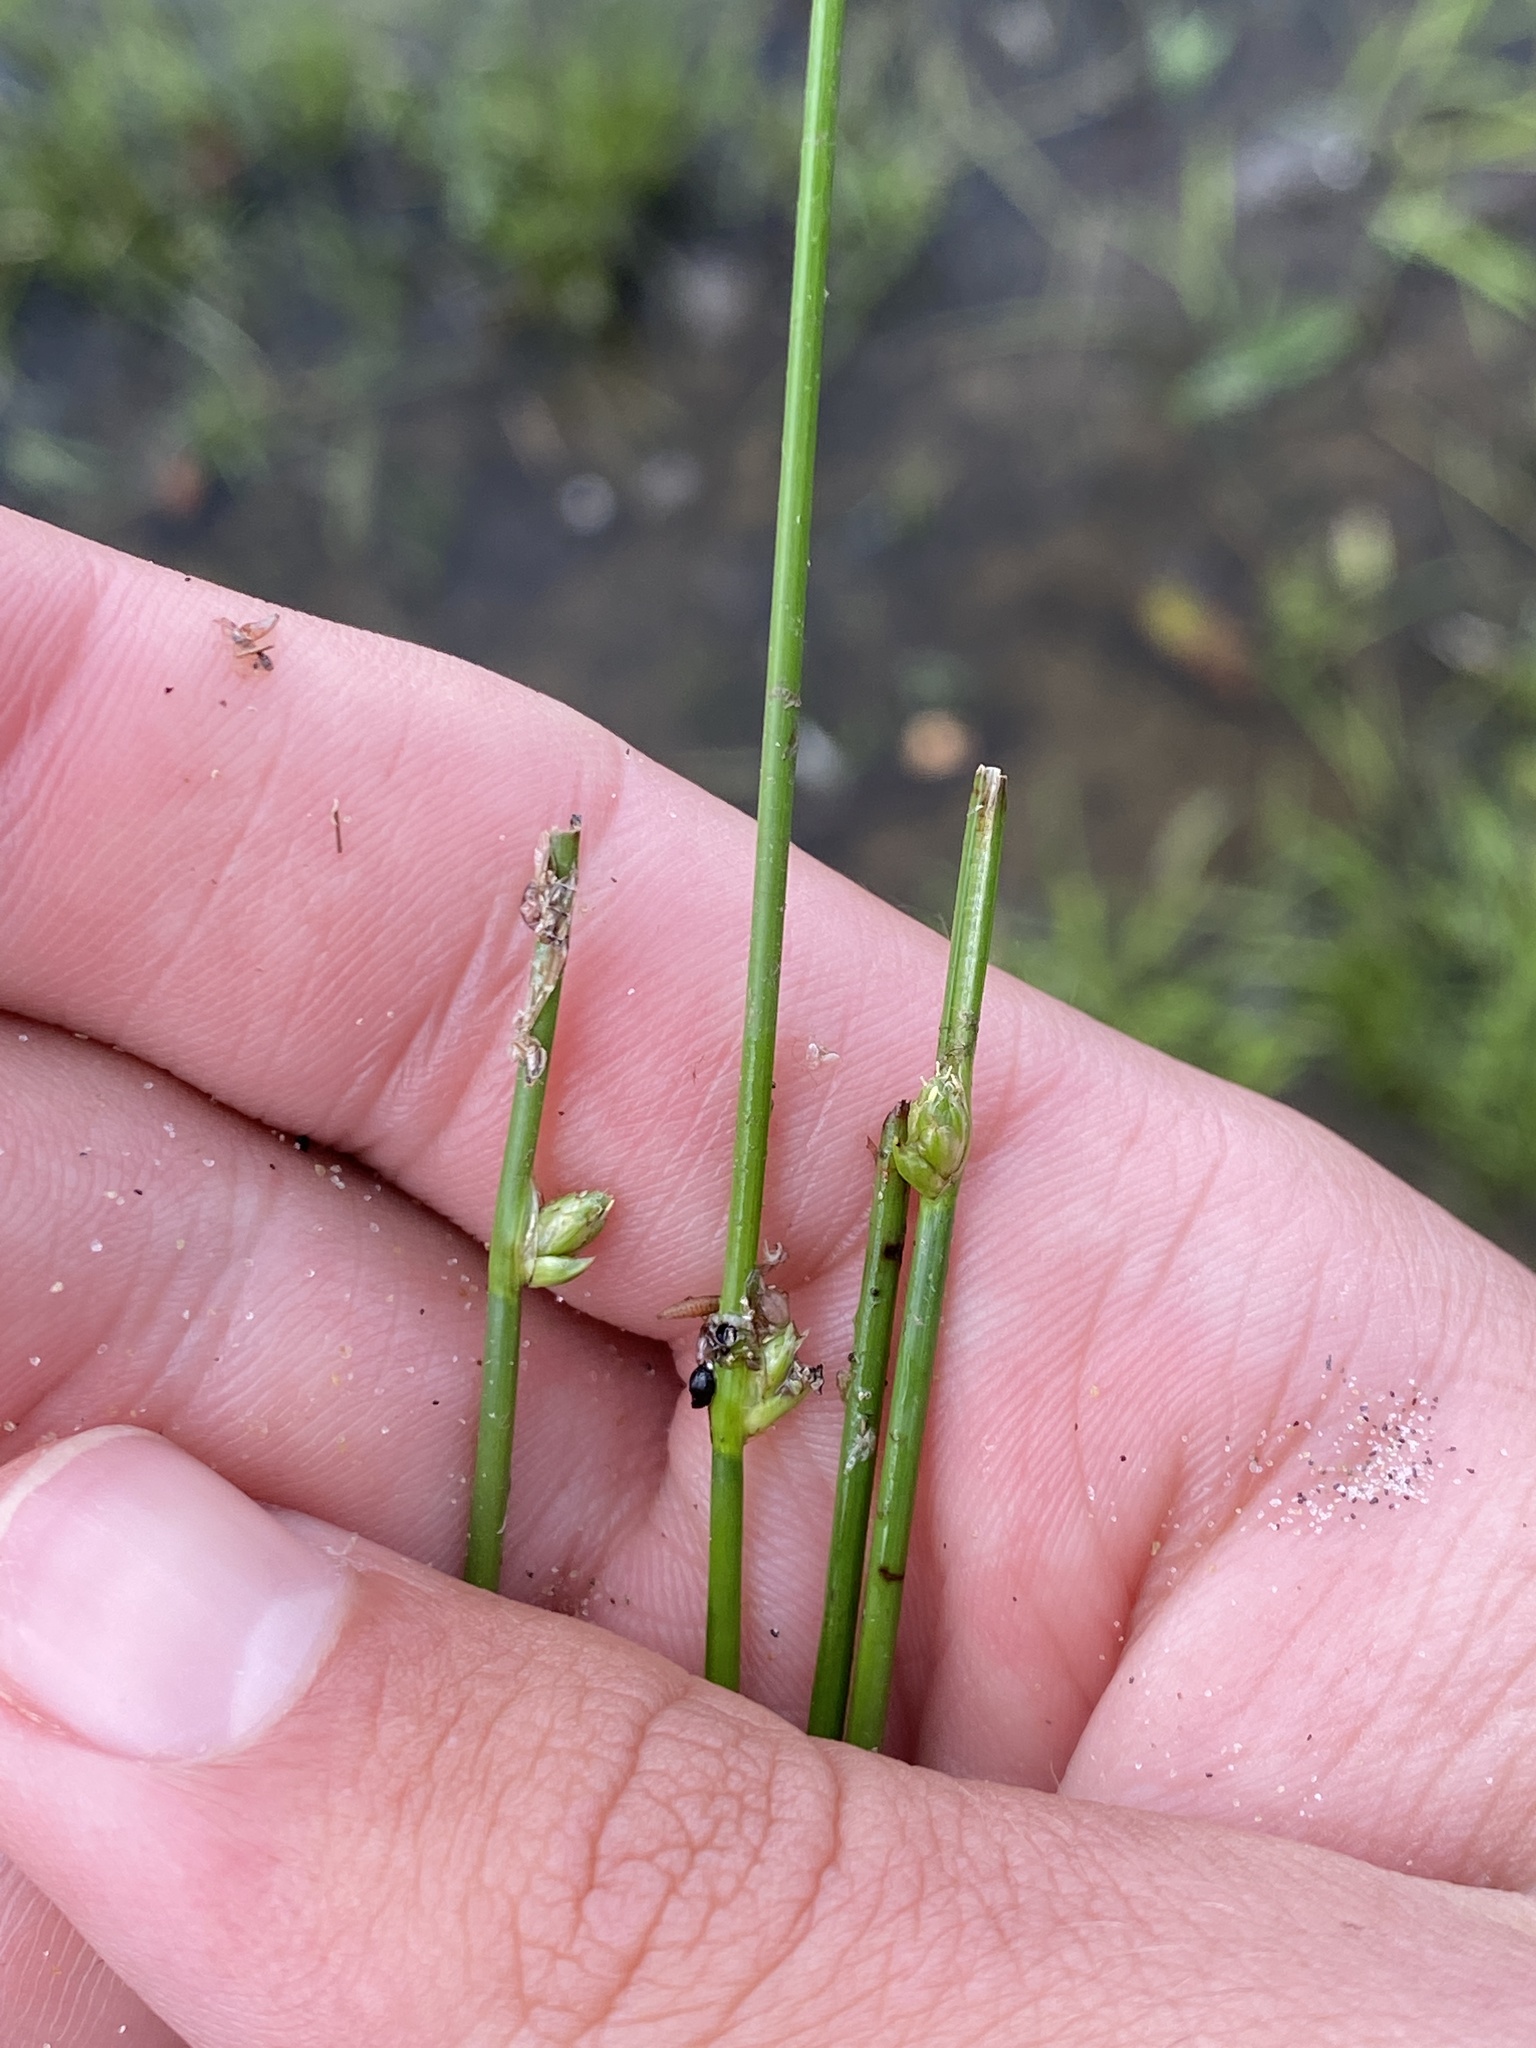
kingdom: Plantae
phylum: Tracheophyta
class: Liliopsida
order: Poales
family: Cyperaceae
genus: Schoenoplectus
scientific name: Schoenoplectus subterminalis
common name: Swaying bulrush
